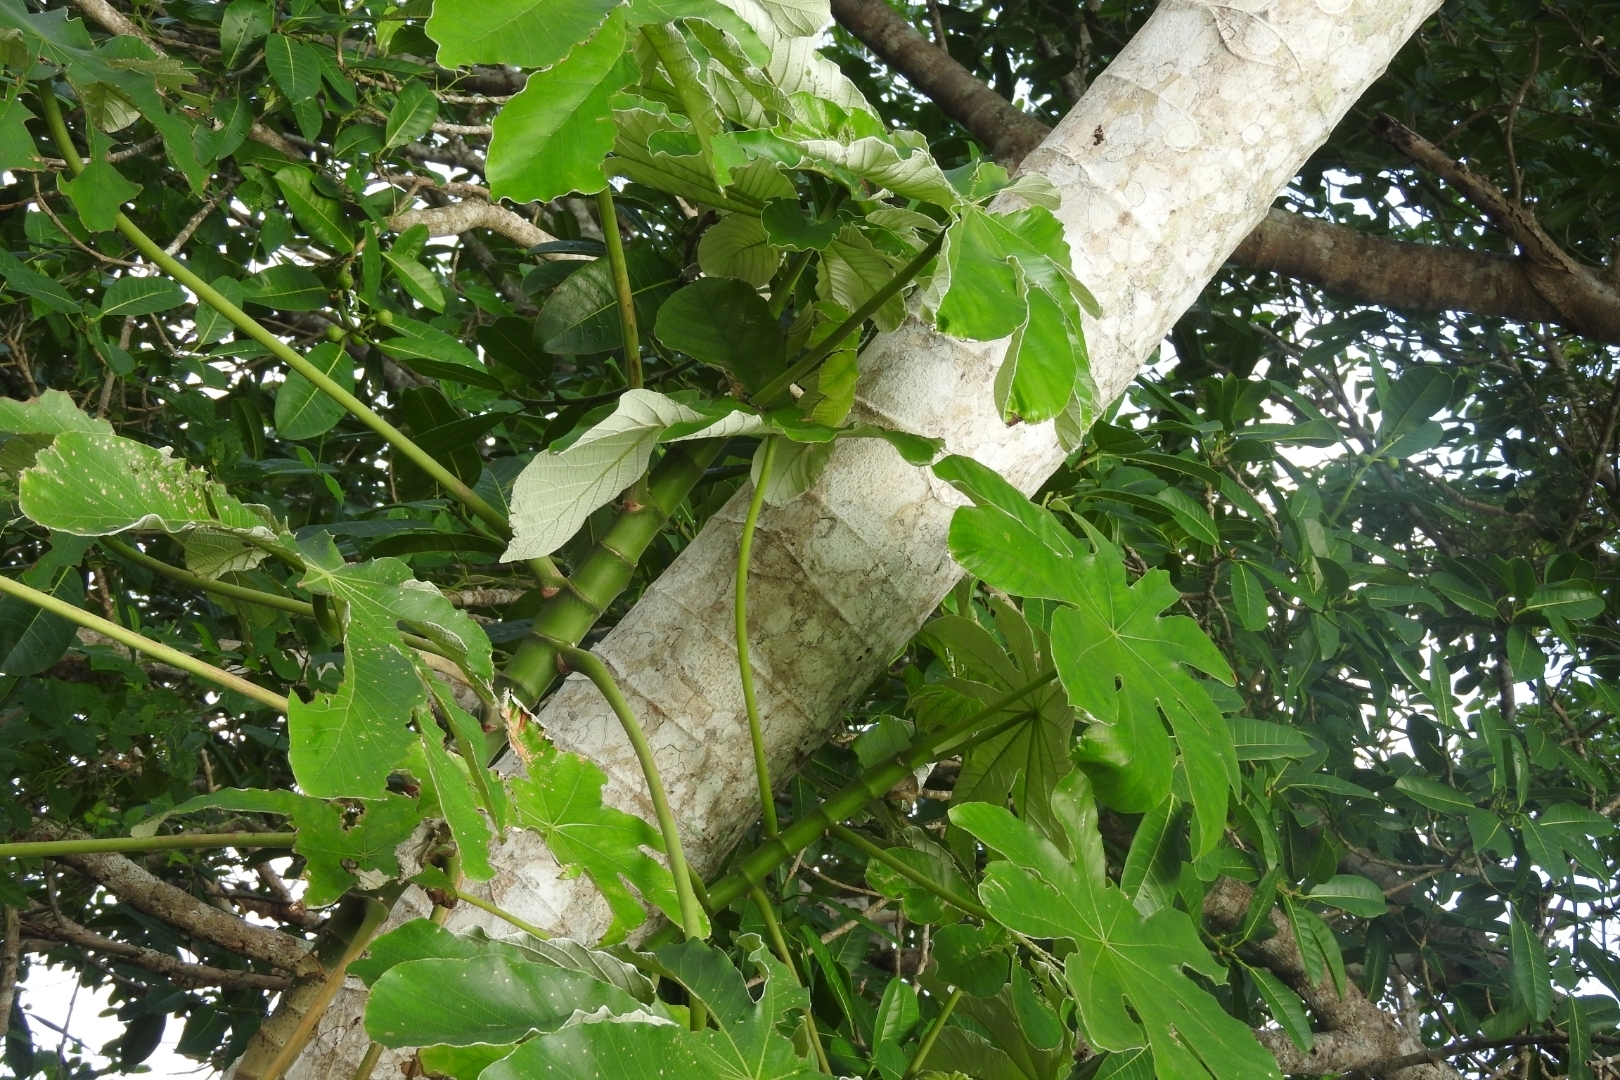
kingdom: Plantae
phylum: Tracheophyta
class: Magnoliopsida
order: Rosales
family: Urticaceae
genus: Cecropia
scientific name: Cecropia peltata
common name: Trumpet-tree
